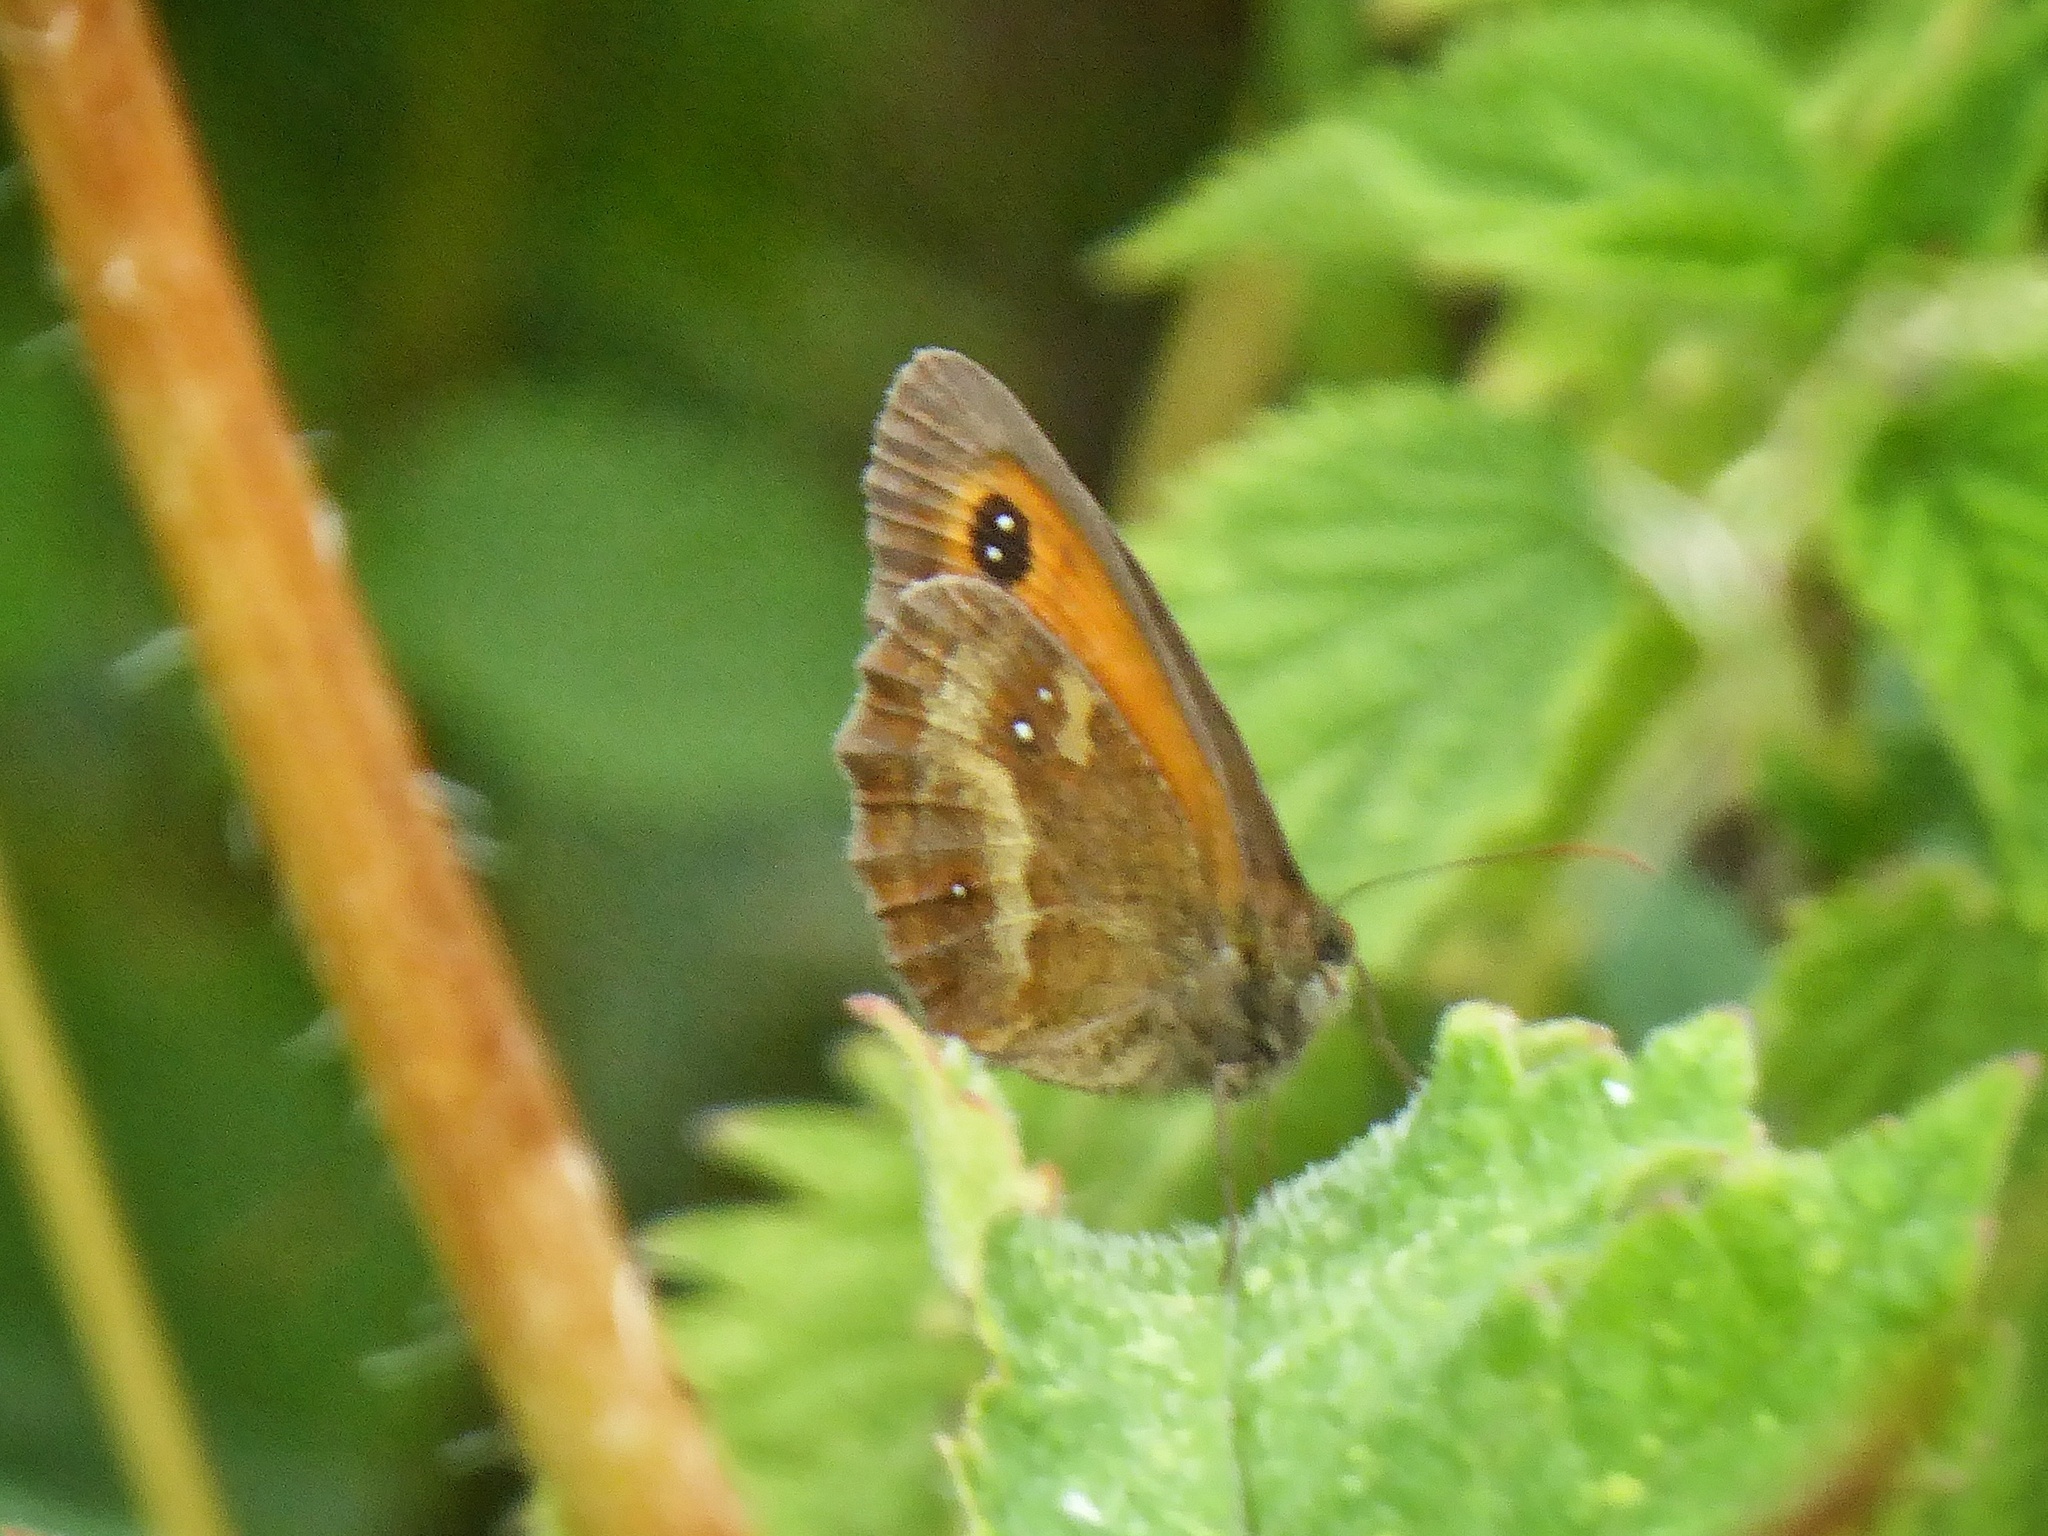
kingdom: Animalia
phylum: Arthropoda
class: Insecta
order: Lepidoptera
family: Nymphalidae
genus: Pyronia
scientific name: Pyronia tithonus
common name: Gatekeeper
